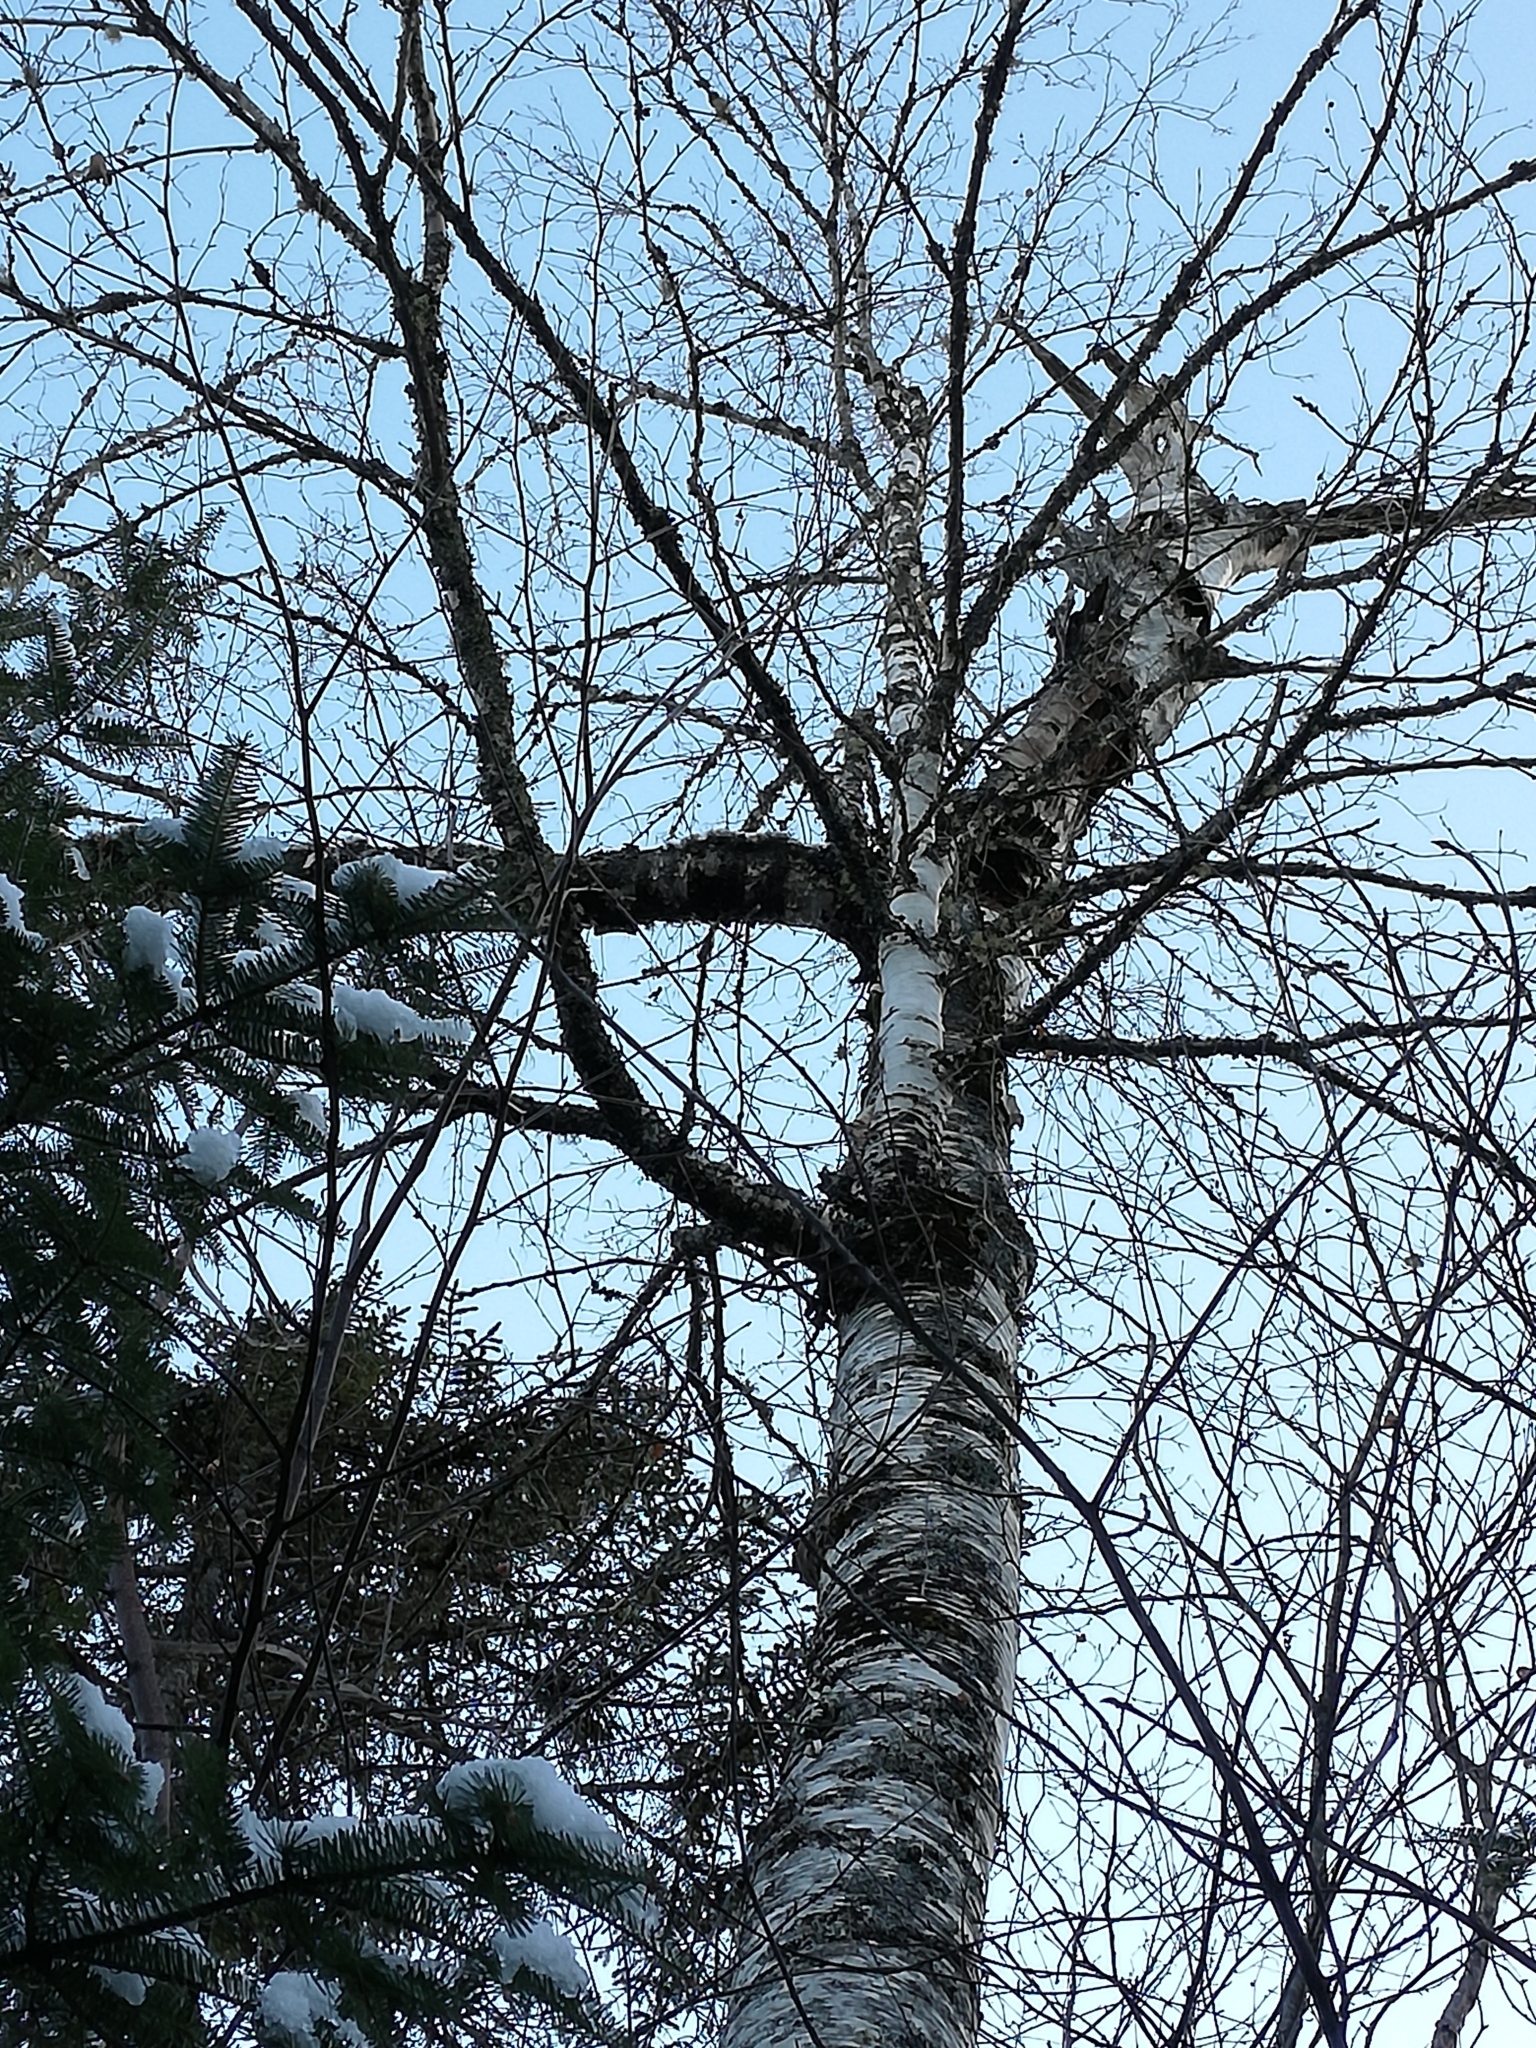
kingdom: Plantae
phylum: Tracheophyta
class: Magnoliopsida
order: Fagales
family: Betulaceae
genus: Betula
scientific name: Betula papyrifera
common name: Paper birch
